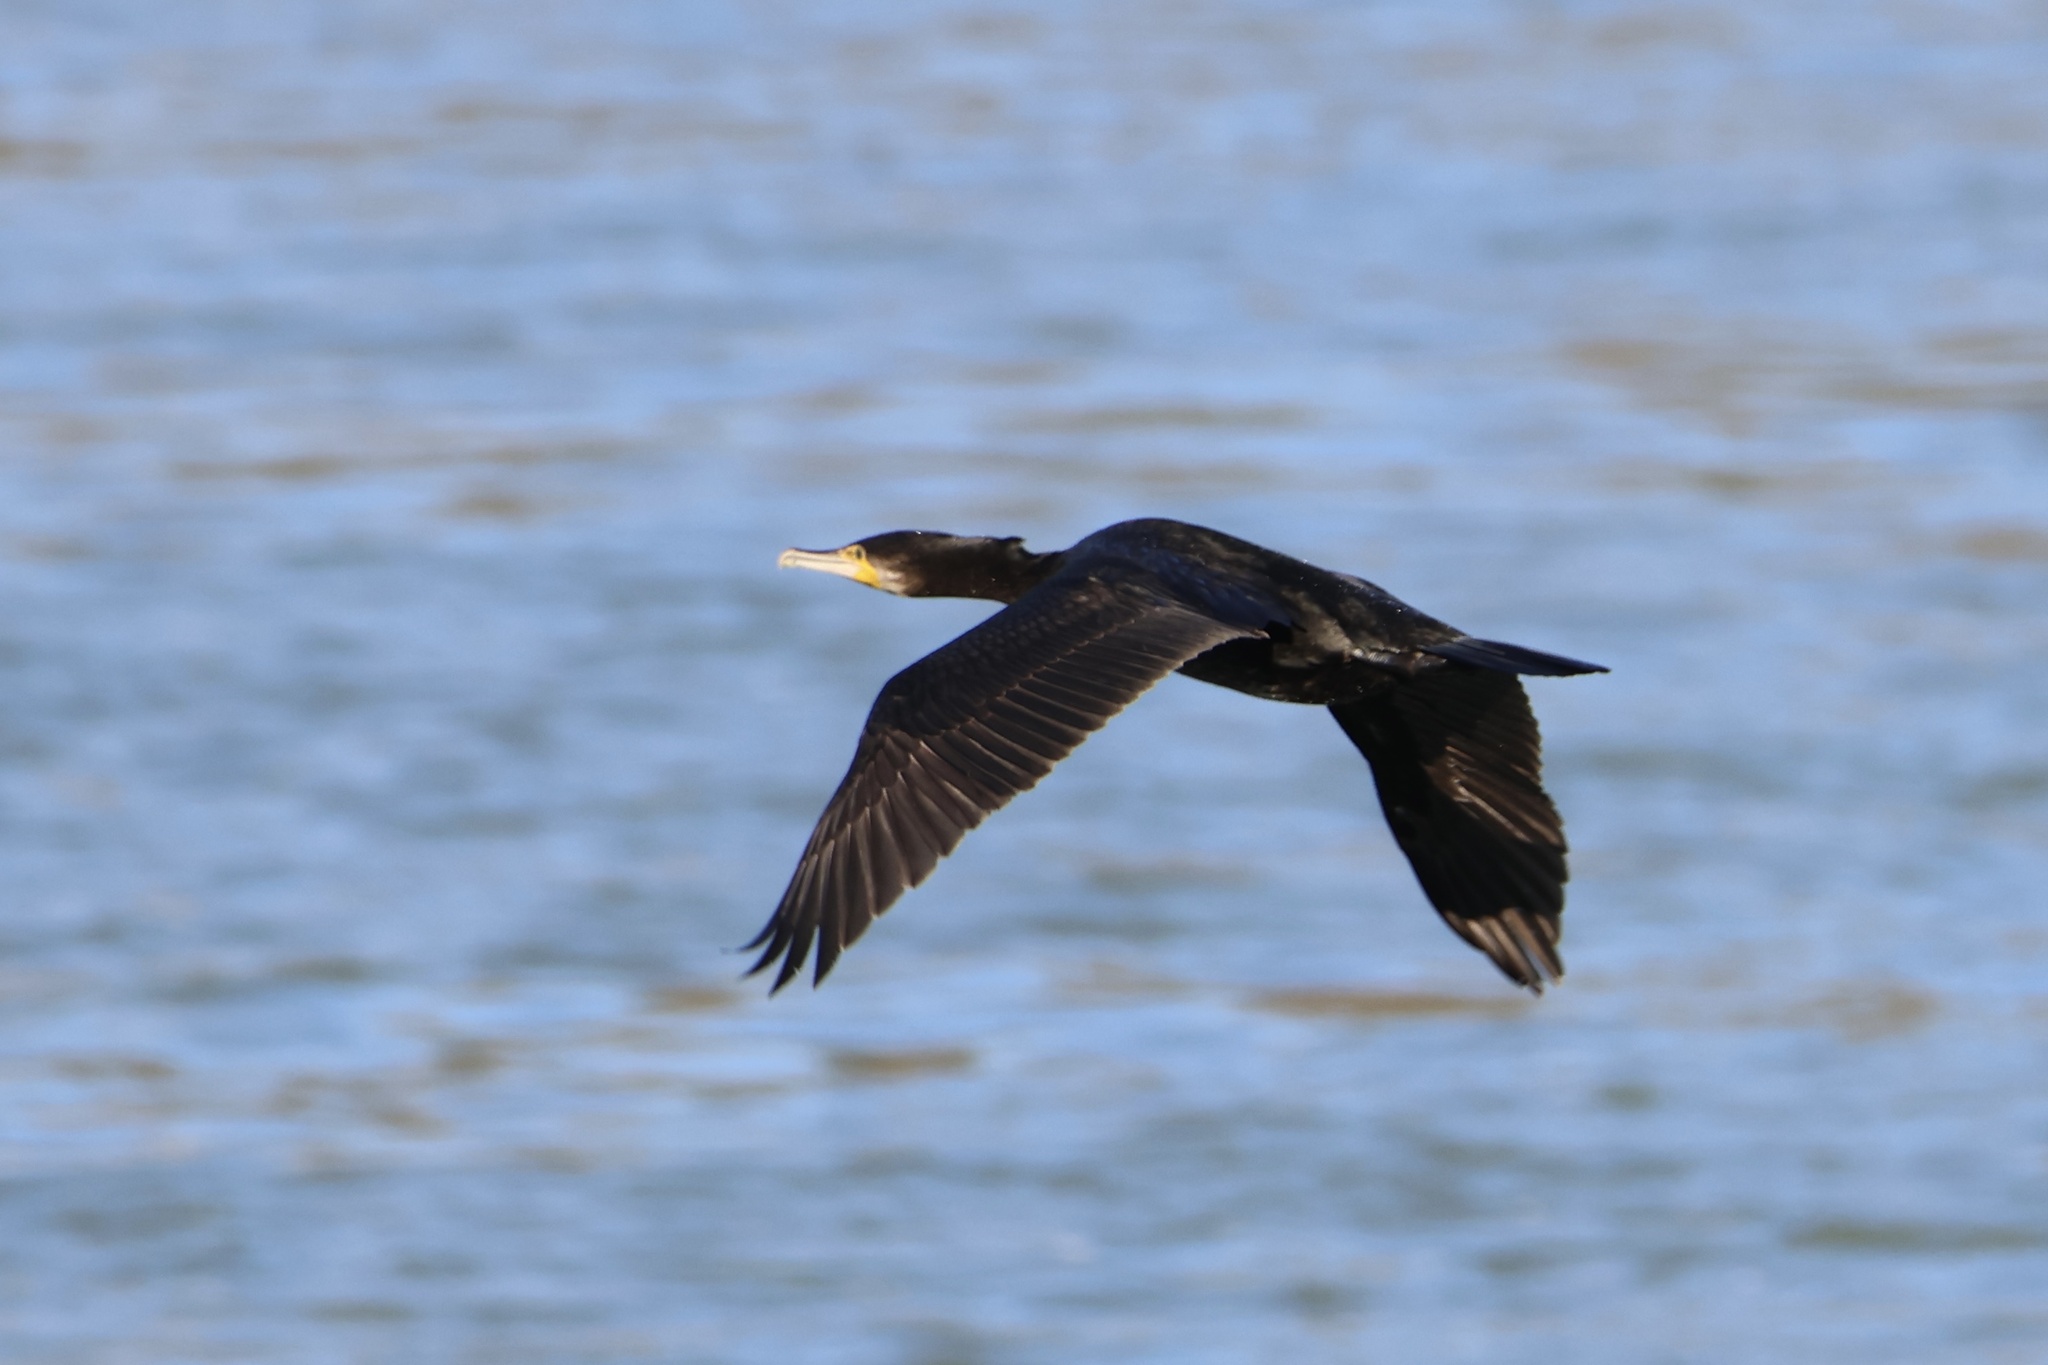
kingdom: Animalia
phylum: Chordata
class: Aves
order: Suliformes
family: Phalacrocoracidae
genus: Phalacrocorax
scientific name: Phalacrocorax carbo
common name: Great cormorant
